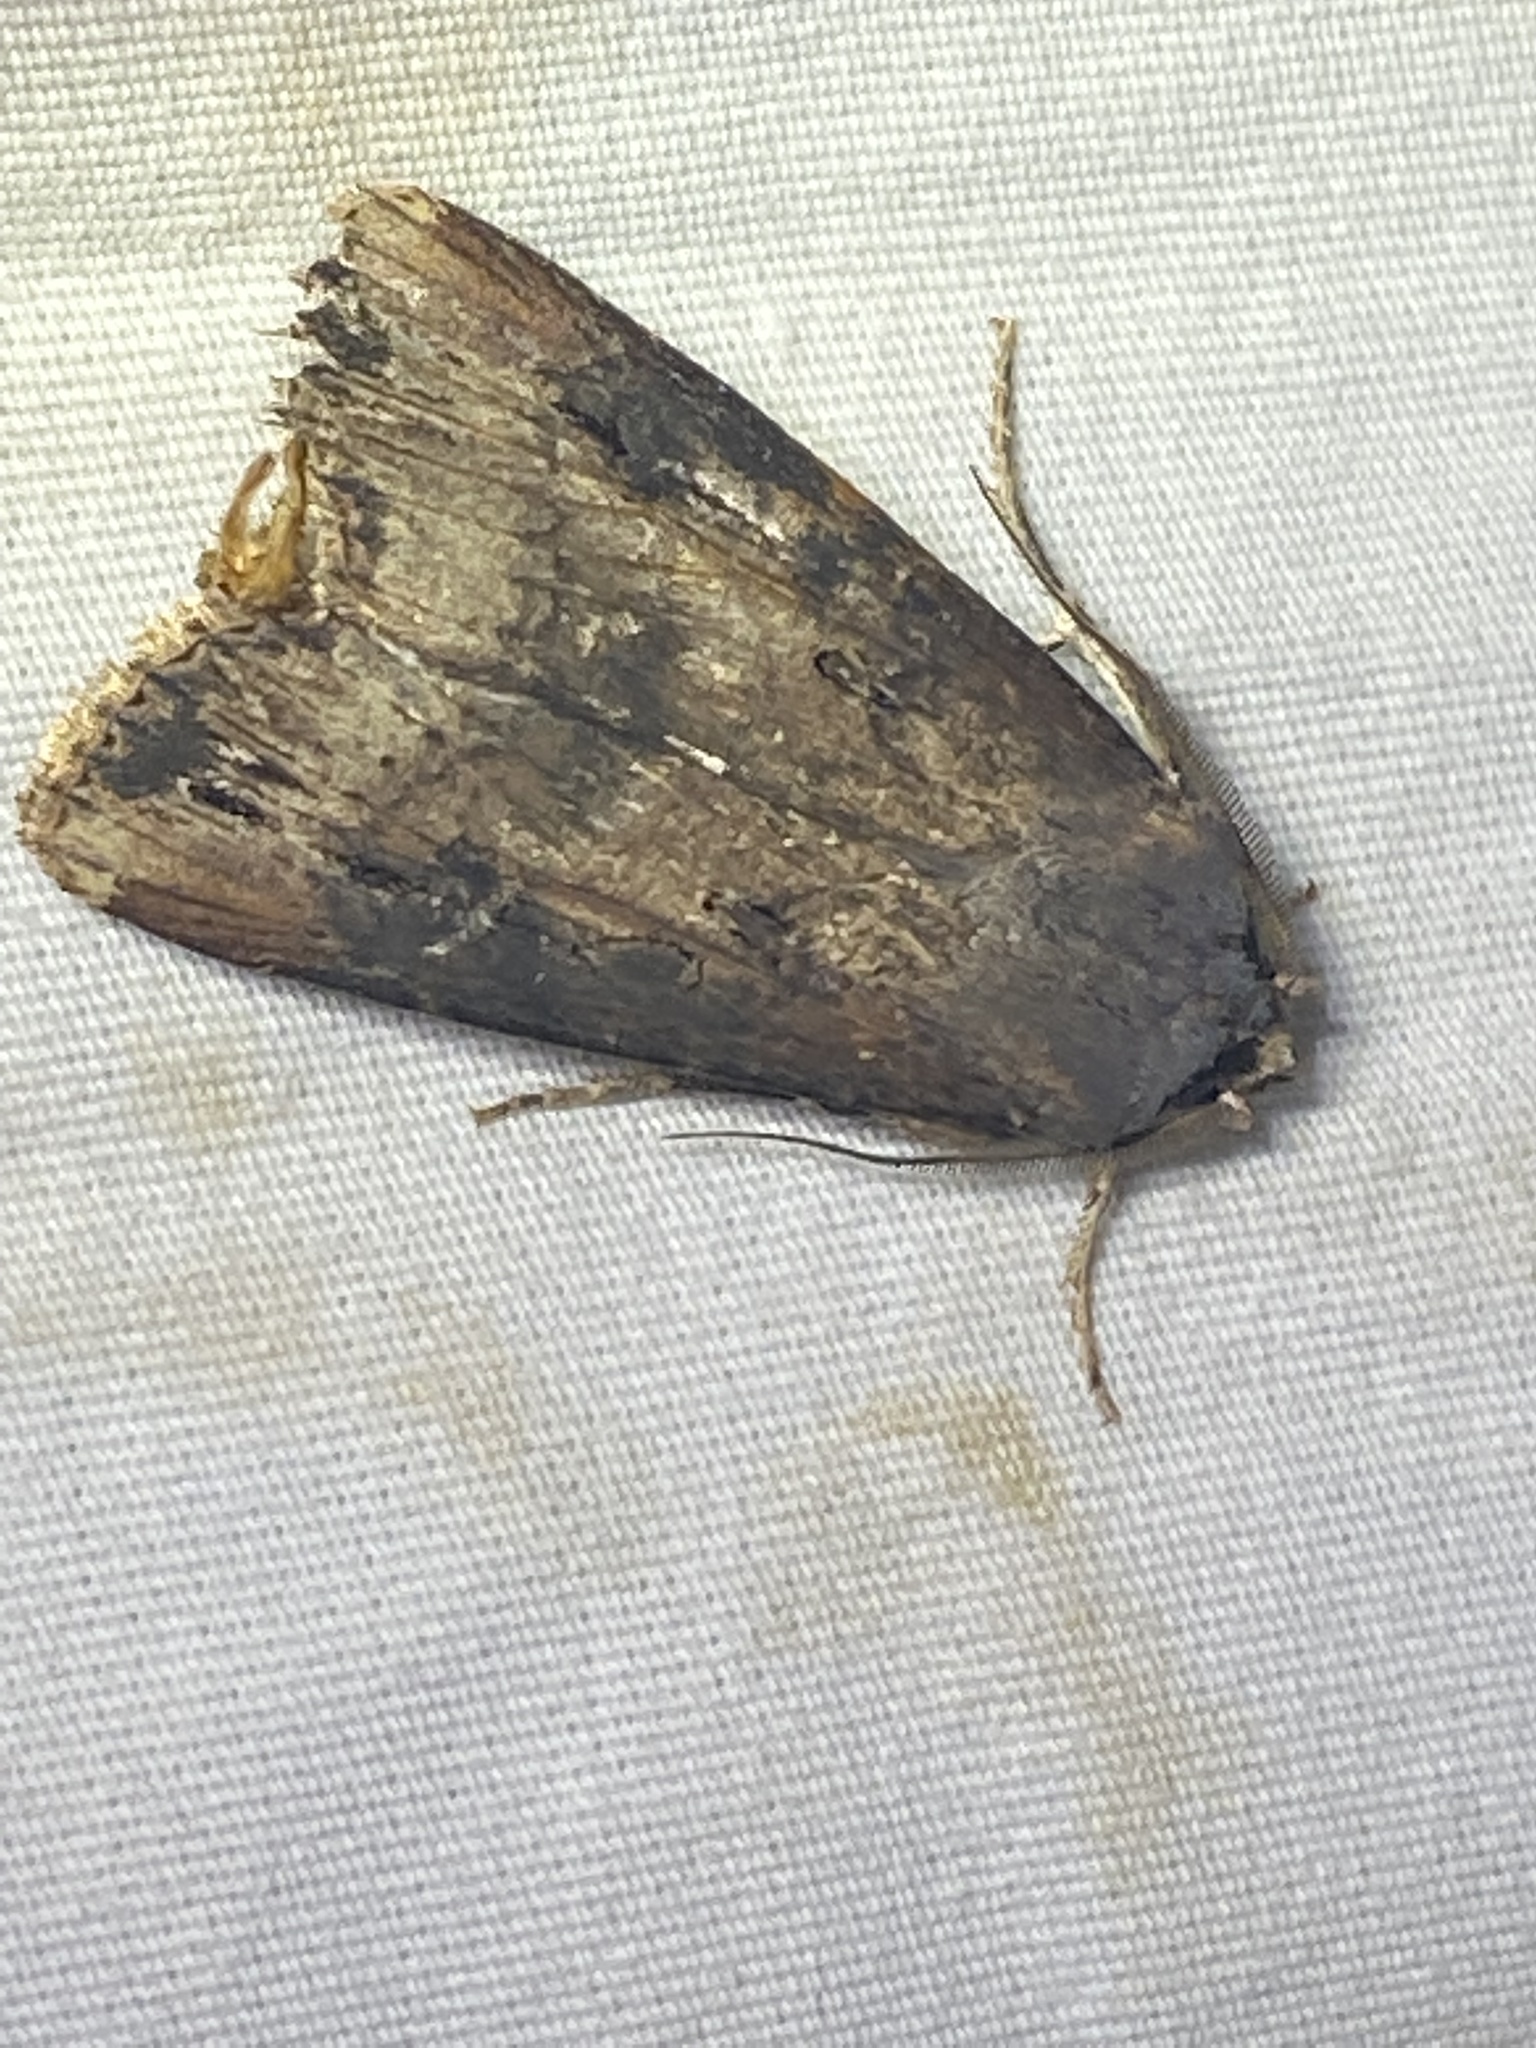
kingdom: Animalia
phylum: Arthropoda
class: Insecta
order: Lepidoptera
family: Noctuidae
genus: Agrotis
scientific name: Agrotis ipsilon
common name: Dark sword-grass
